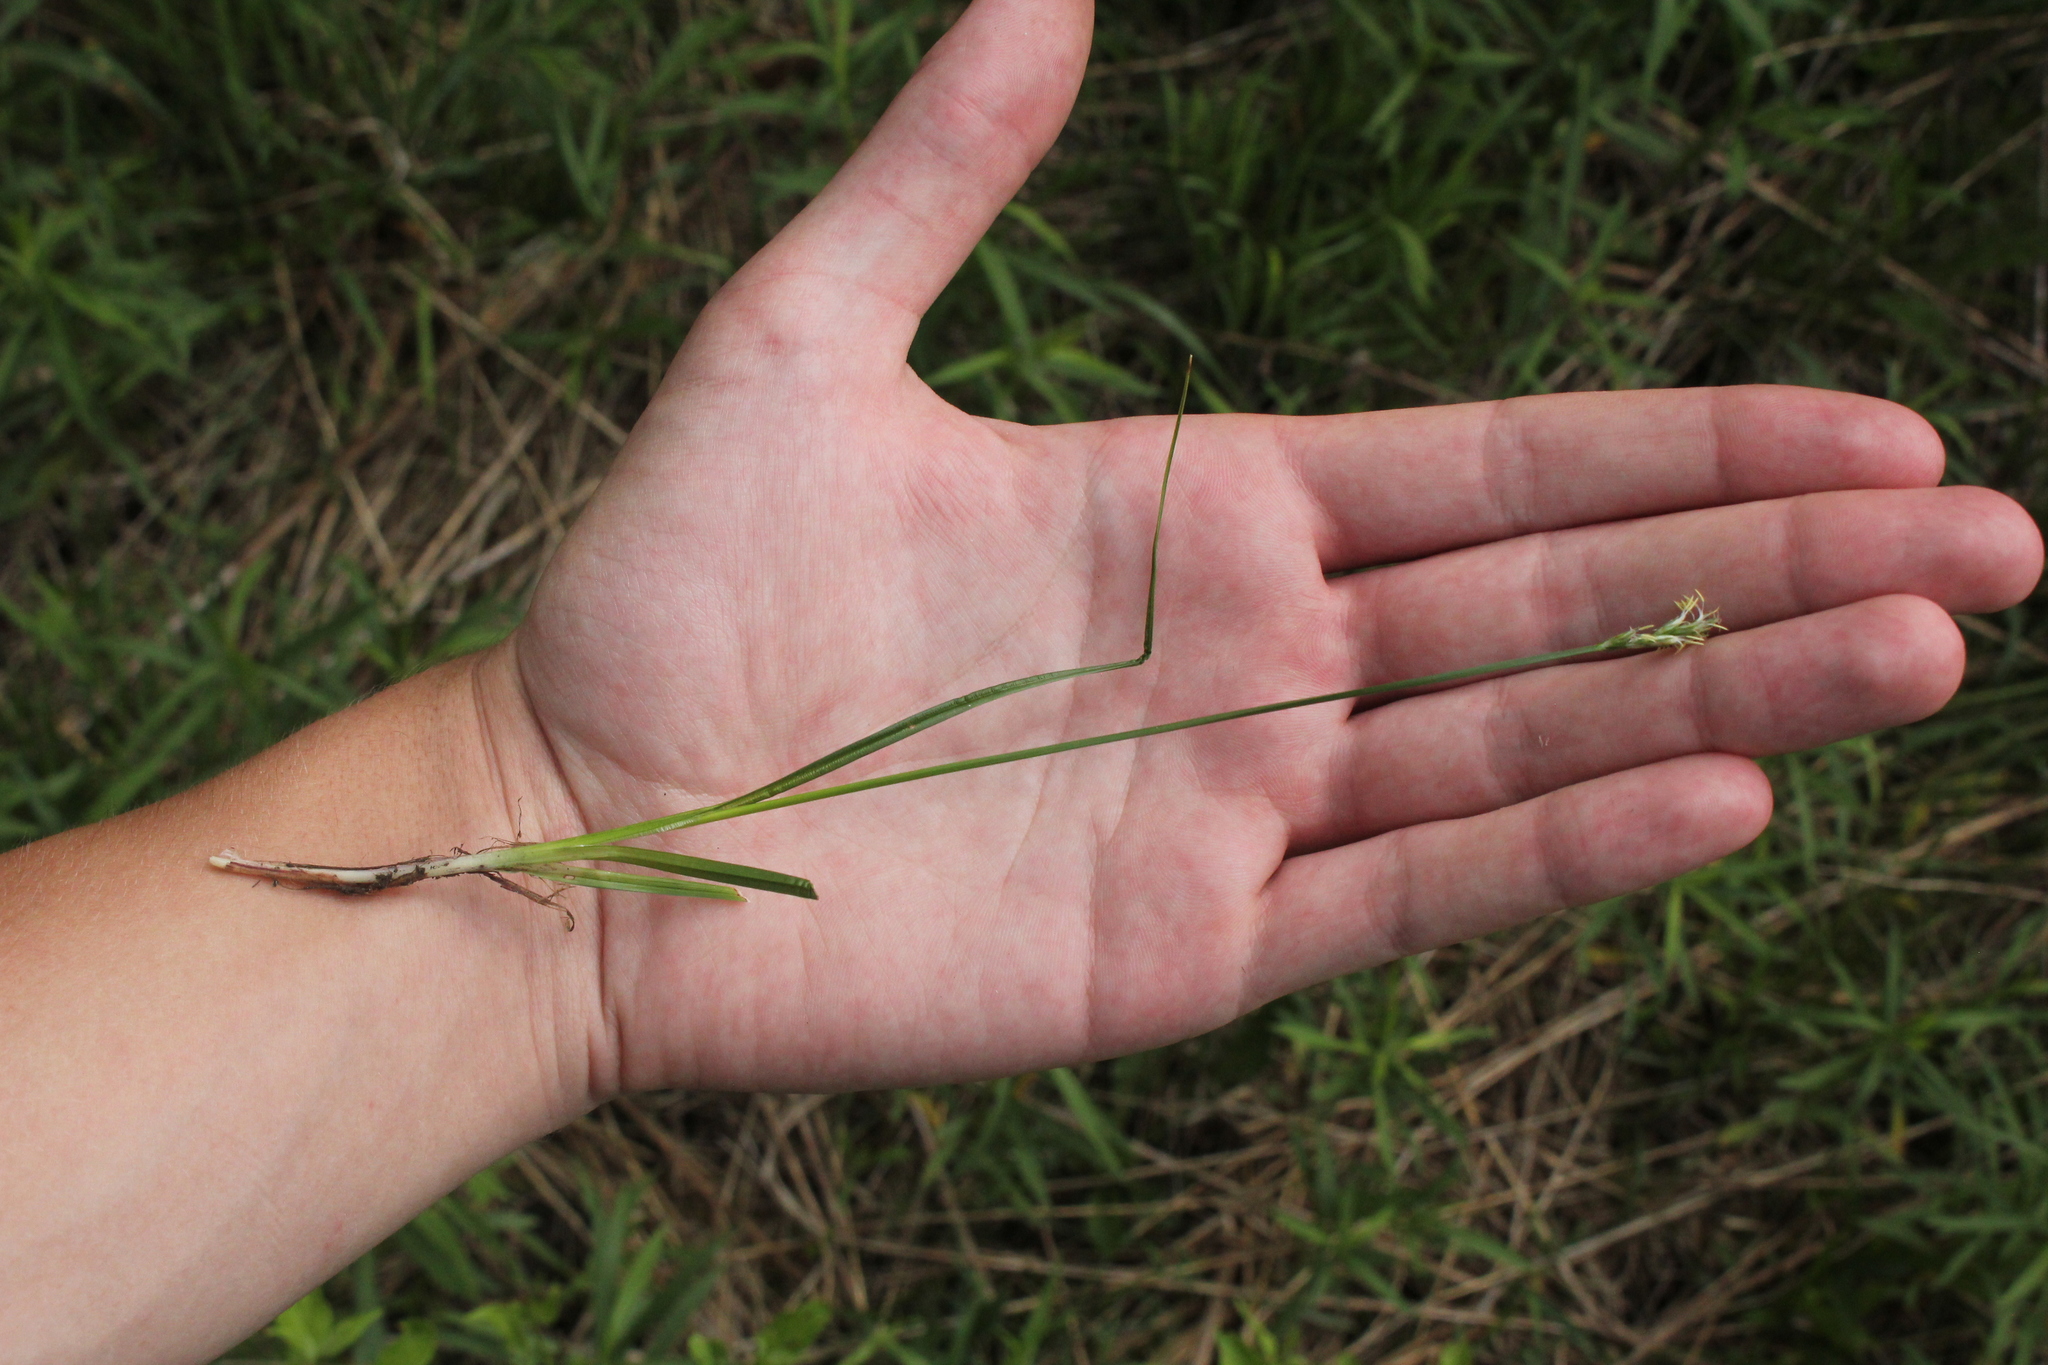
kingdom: Plantae
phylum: Tracheophyta
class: Liliopsida
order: Poales
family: Cyperaceae
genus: Carex
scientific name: Carex spicata
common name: Spiked sedge
